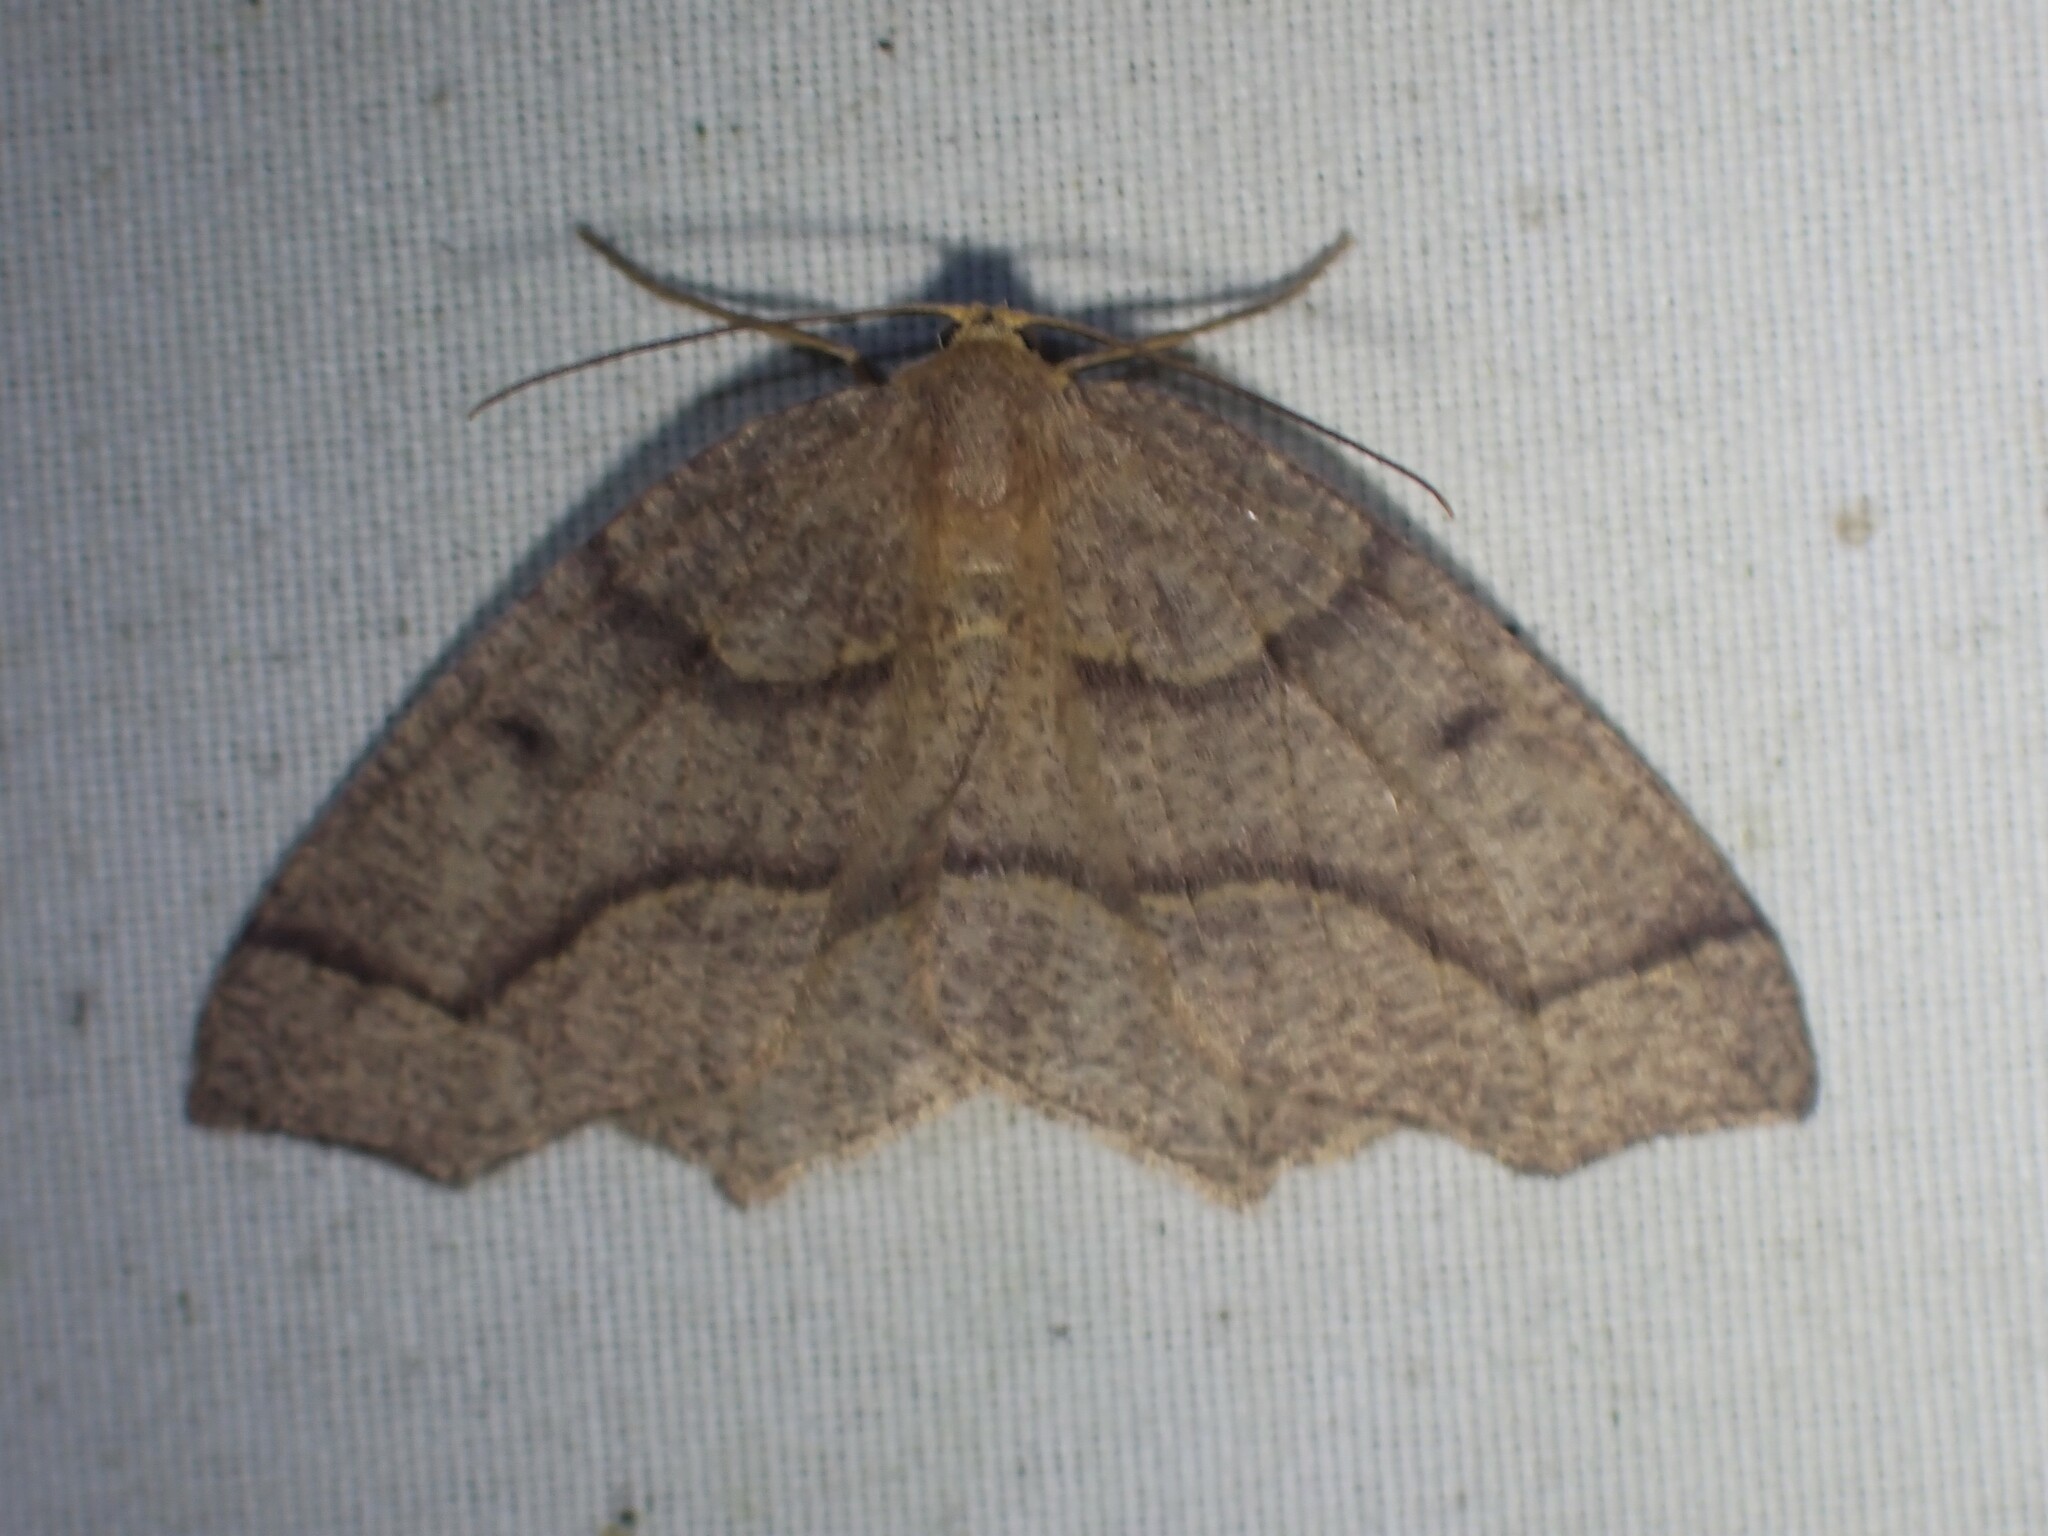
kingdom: Animalia
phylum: Arthropoda
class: Insecta
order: Lepidoptera
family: Geometridae
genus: Lambdina
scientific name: Lambdina fiscellaria
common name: Hemlock looper
